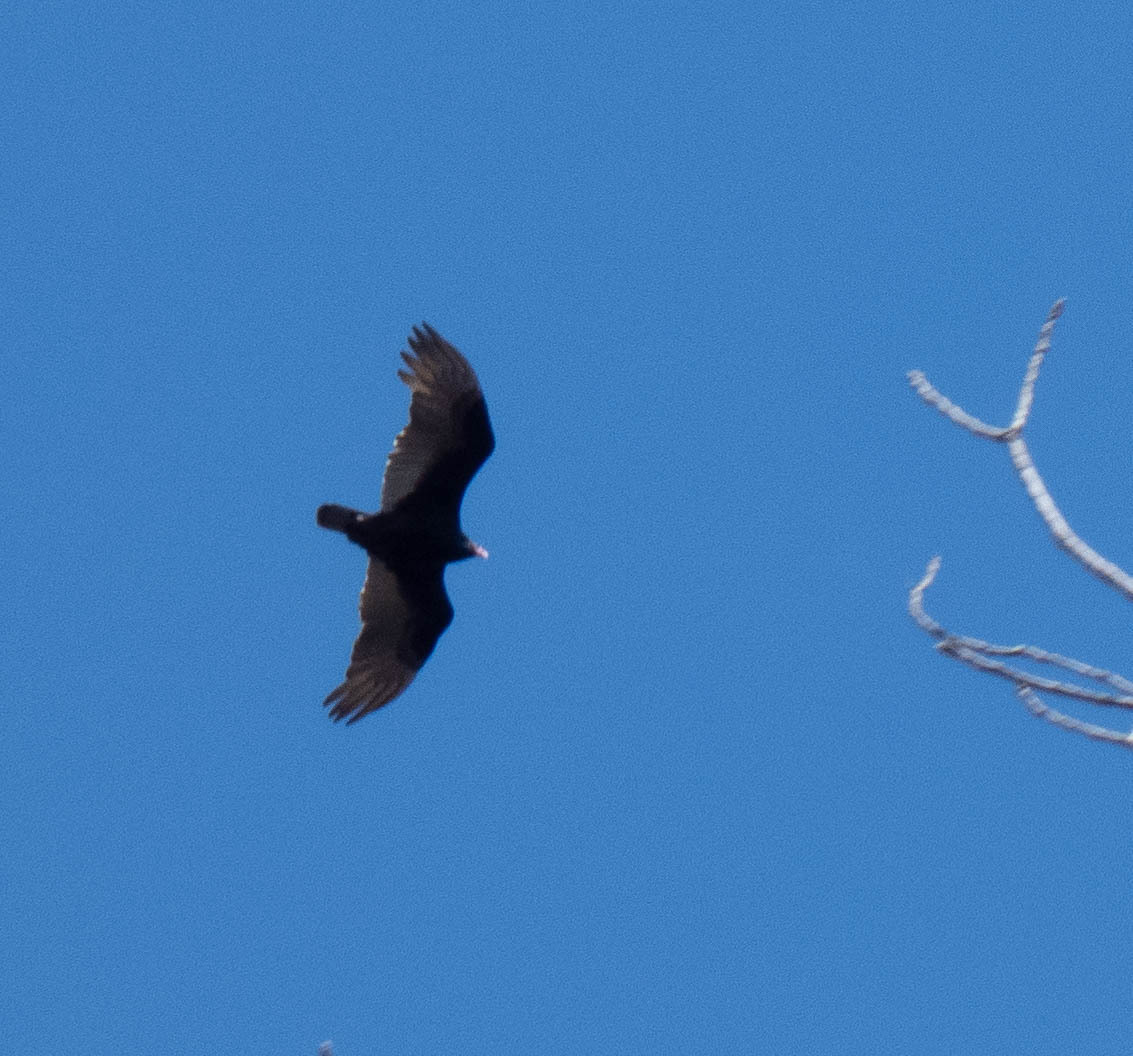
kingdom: Animalia
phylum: Chordata
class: Aves
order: Accipitriformes
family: Cathartidae
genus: Cathartes
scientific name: Cathartes aura
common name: Turkey vulture
